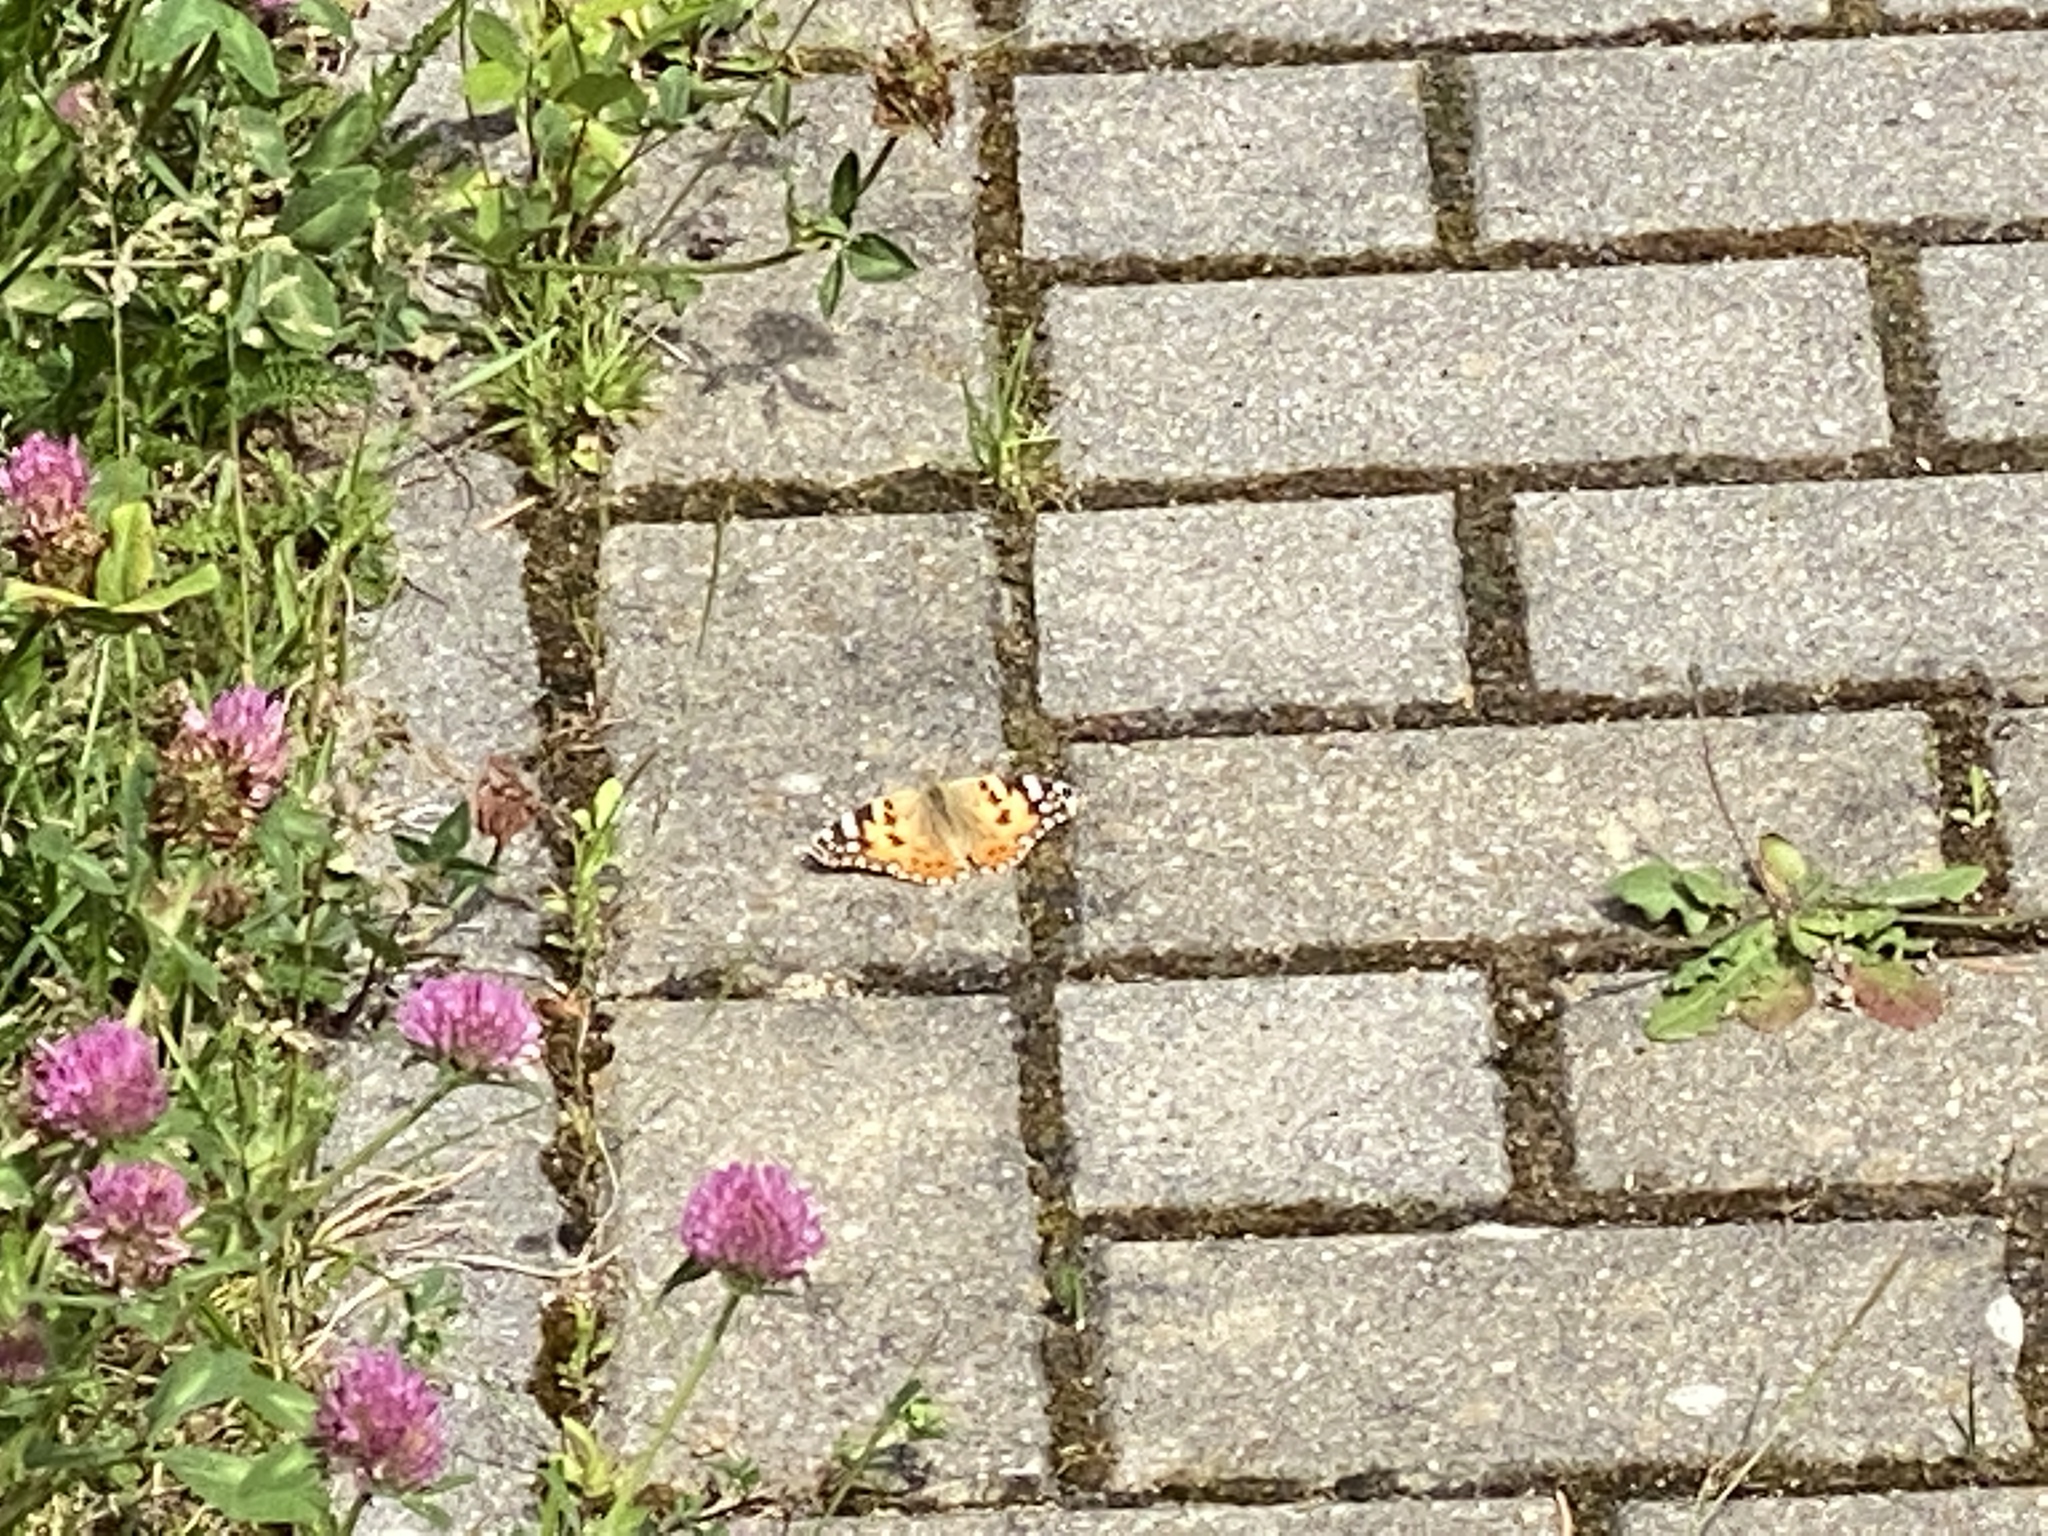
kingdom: Animalia
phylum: Arthropoda
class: Insecta
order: Lepidoptera
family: Nymphalidae
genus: Vanessa
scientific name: Vanessa cardui
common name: Painted lady
